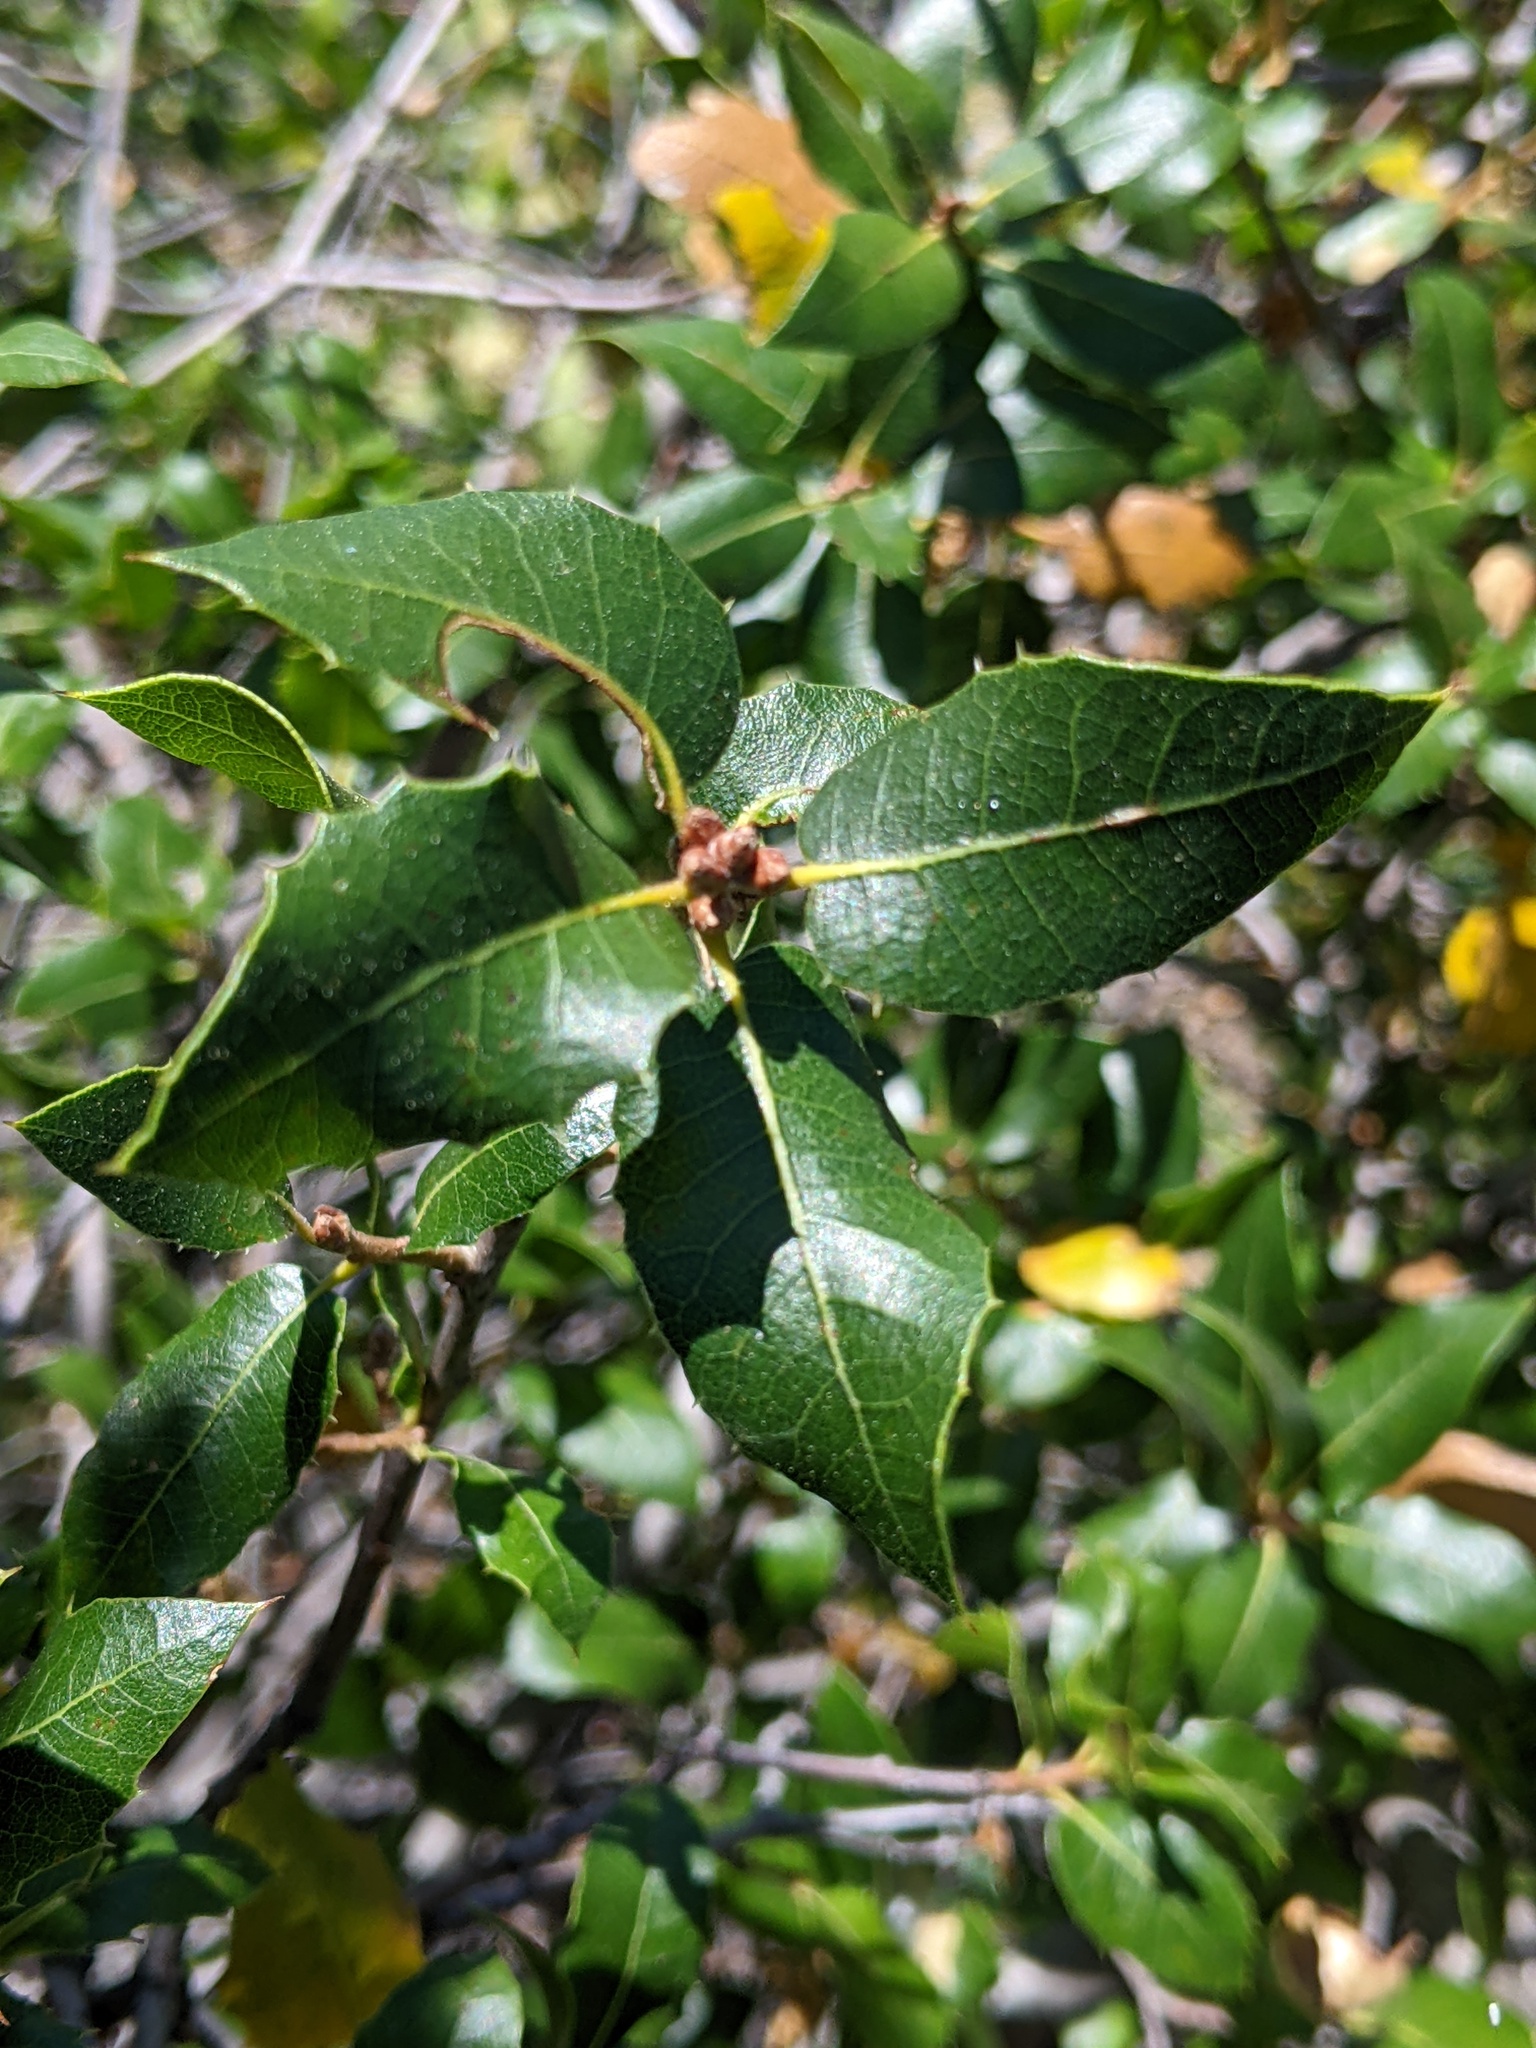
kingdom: Plantae
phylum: Tracheophyta
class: Magnoliopsida
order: Fagales
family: Fagaceae
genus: Quercus
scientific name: Quercus wislizeni
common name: Interior live oak
